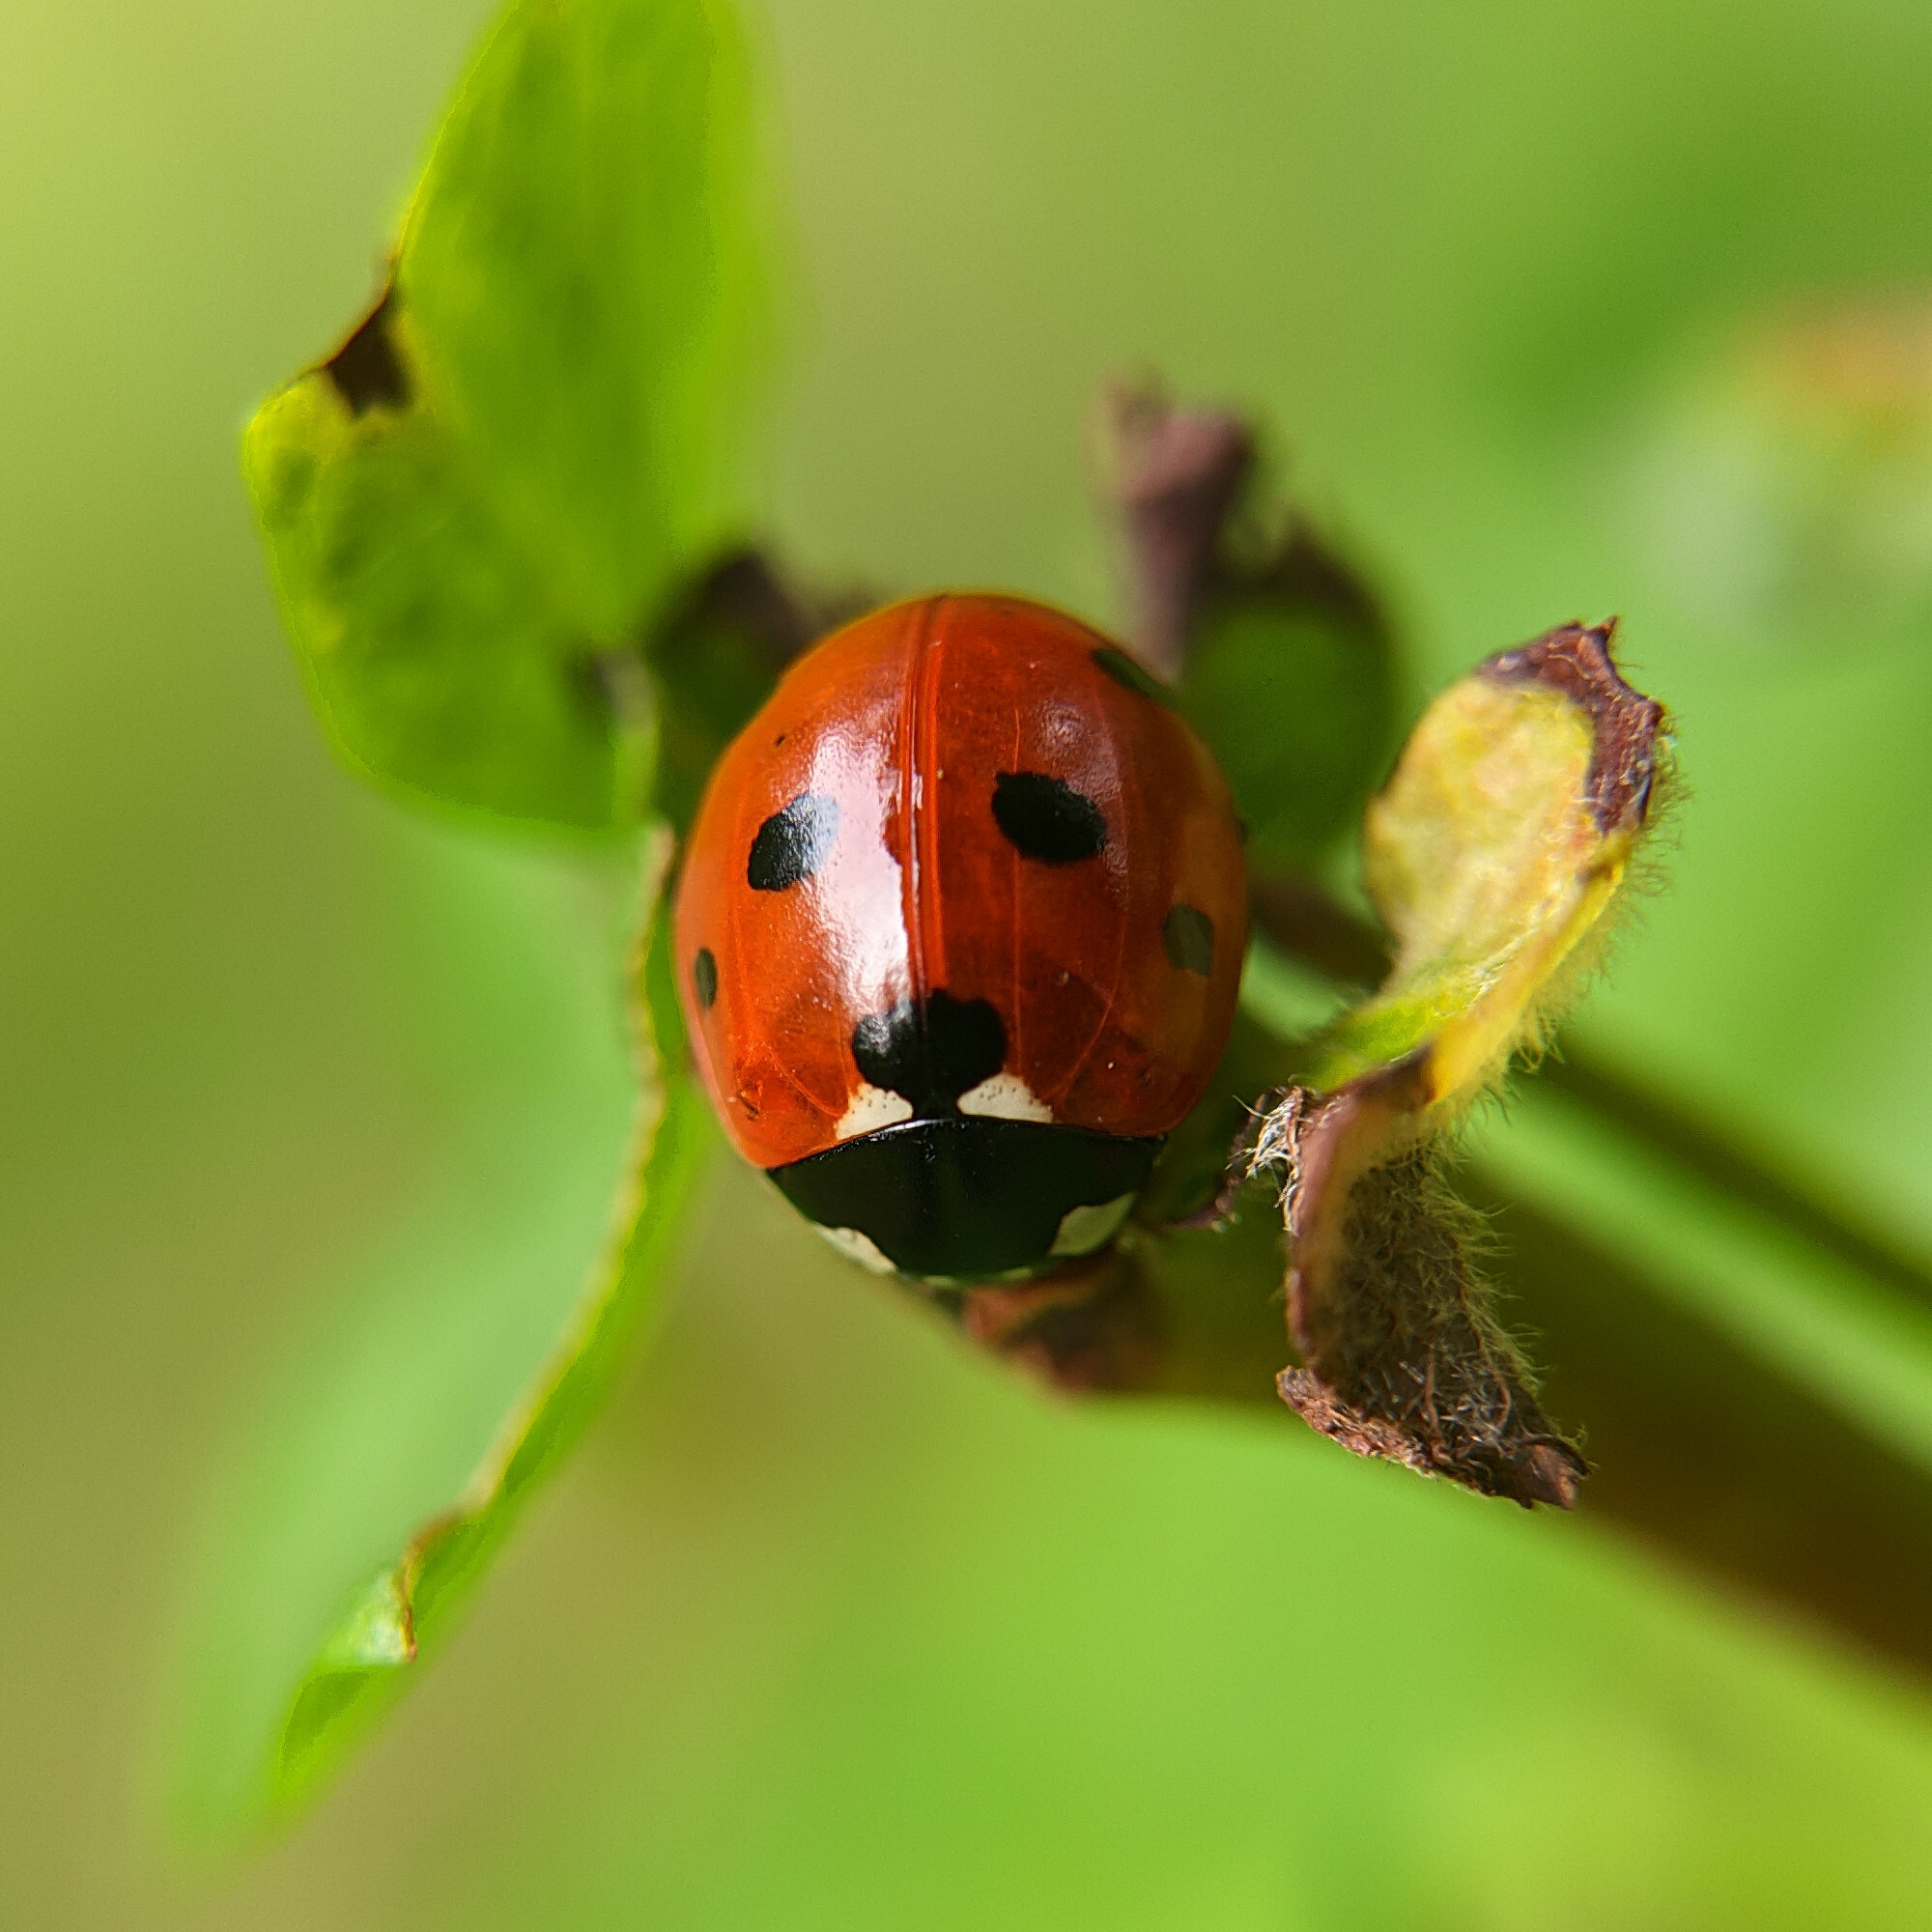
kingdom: Animalia
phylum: Arthropoda
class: Insecta
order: Coleoptera
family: Coccinellidae
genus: Coccinella
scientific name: Coccinella septempunctata
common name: Sevenspotted lady beetle
